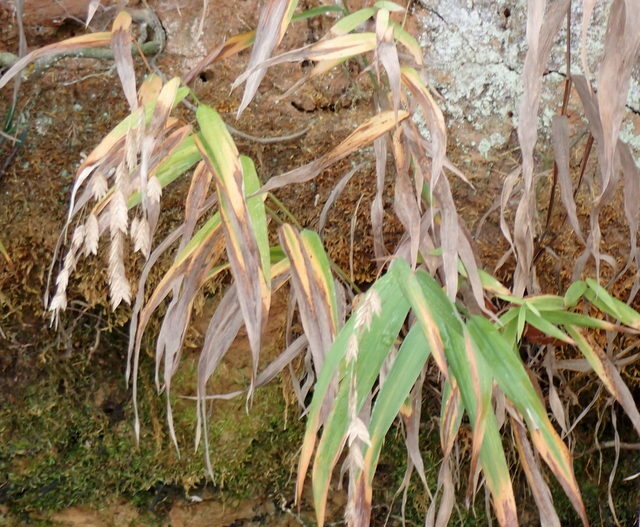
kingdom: Plantae
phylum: Tracheophyta
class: Liliopsida
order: Poales
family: Poaceae
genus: Chasmanthium
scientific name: Chasmanthium latifolium
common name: Broad-leaved chasmanthium
